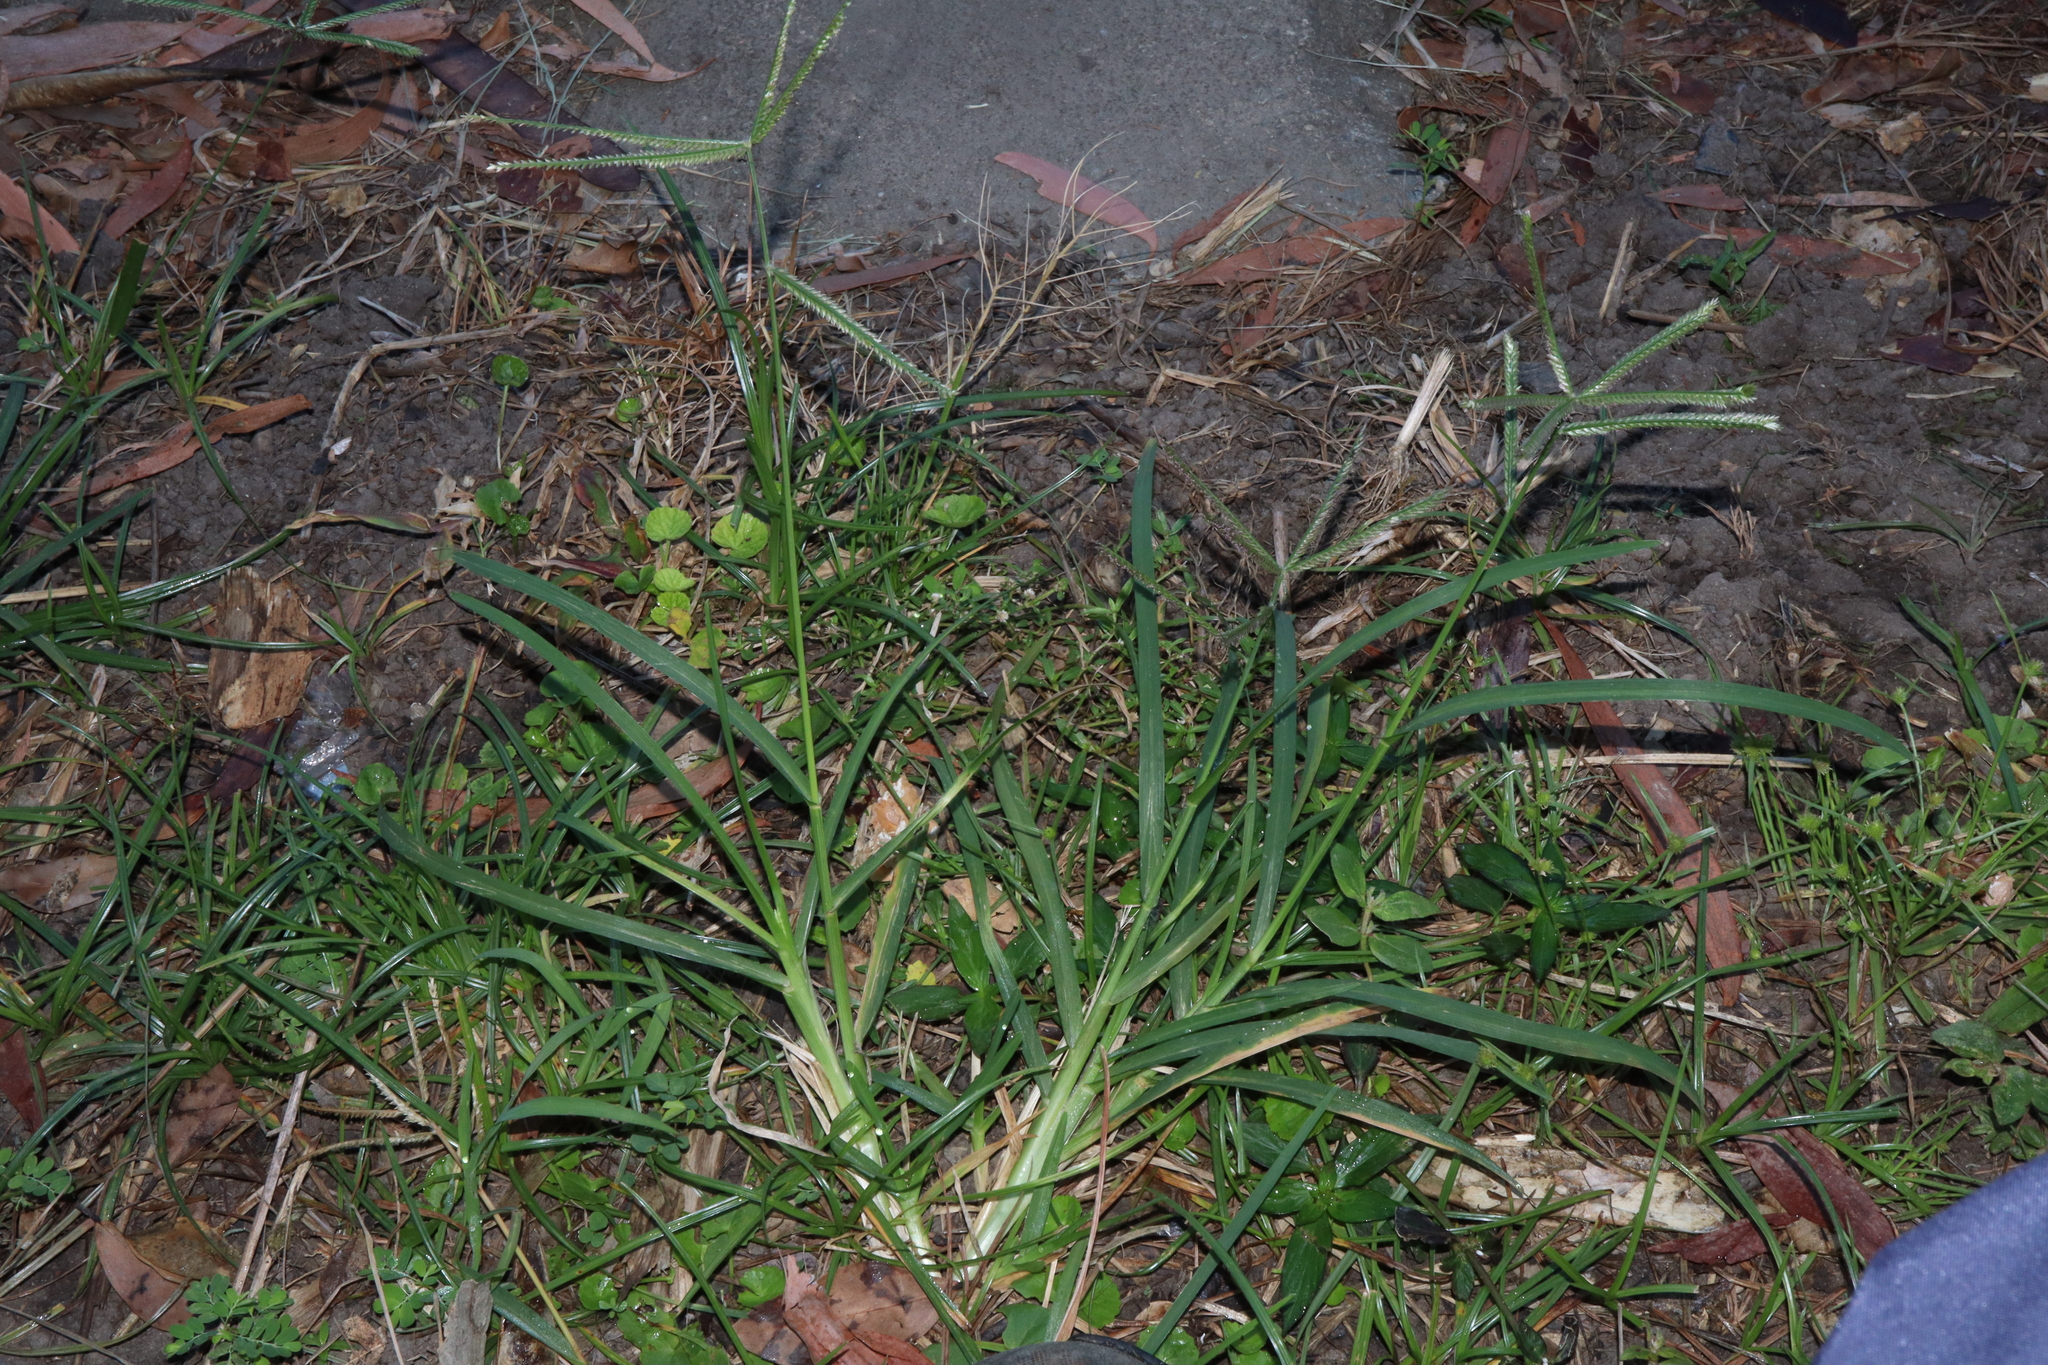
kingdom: Plantae
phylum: Tracheophyta
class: Liliopsida
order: Poales
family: Poaceae
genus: Eleusine
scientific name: Eleusine indica
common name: Yard-grass
